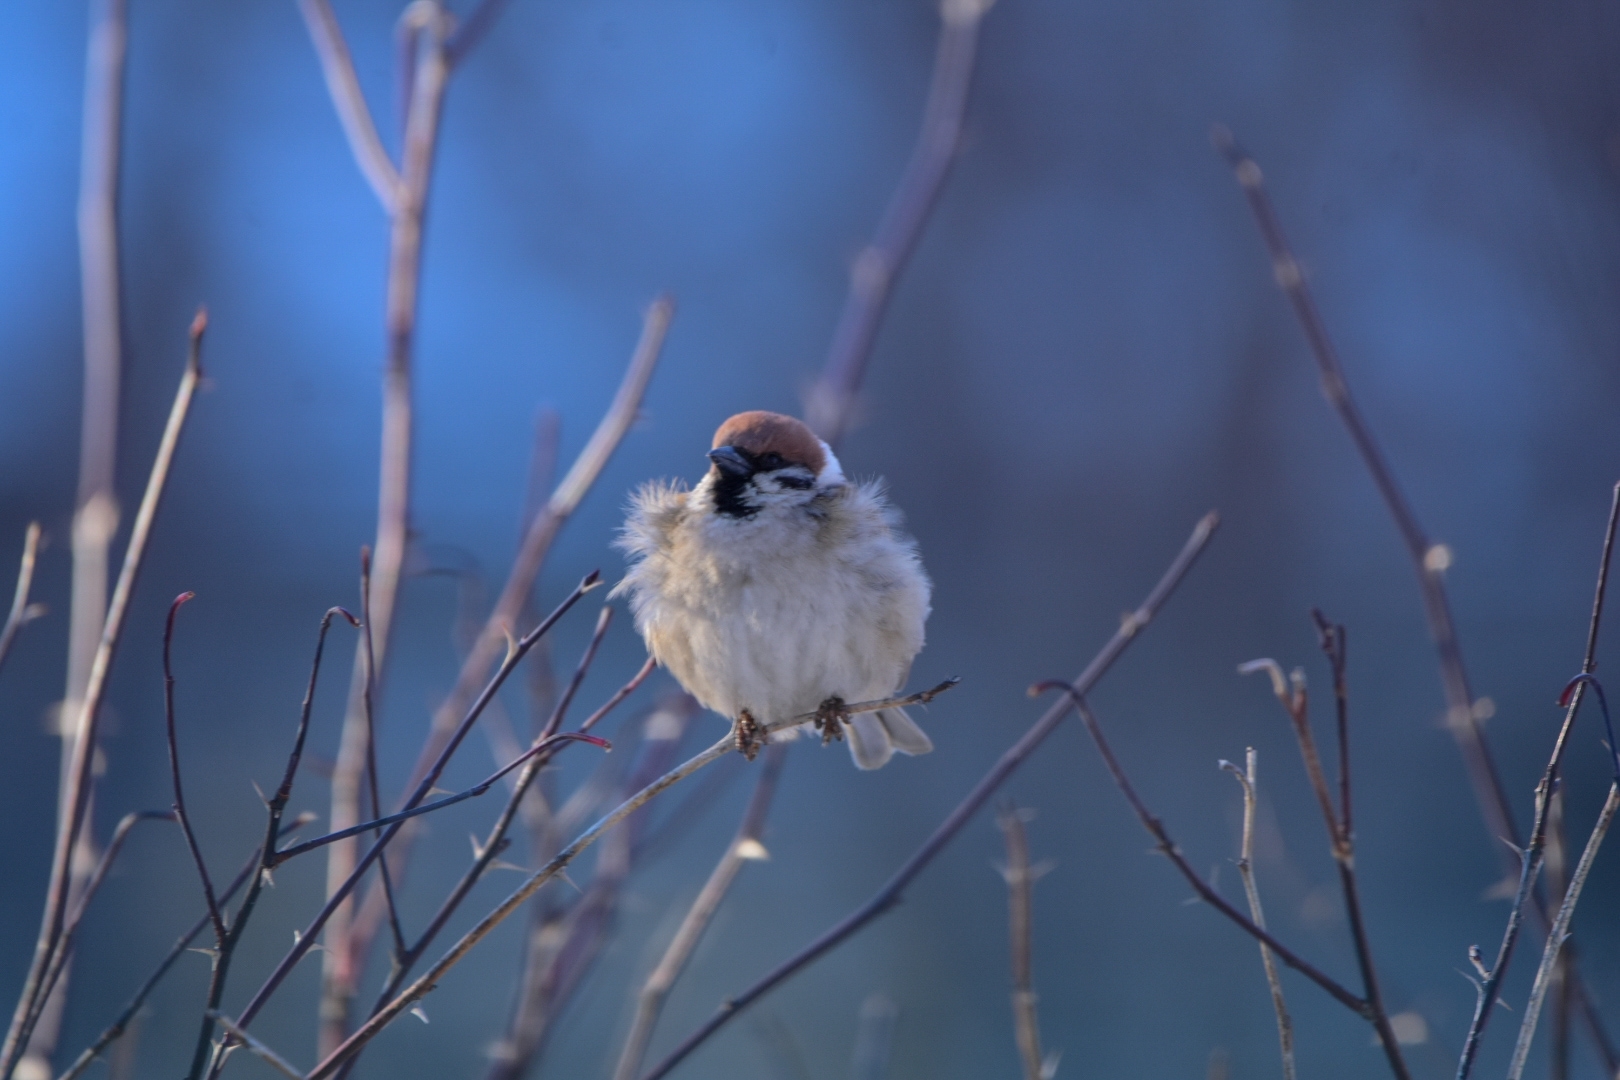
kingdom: Animalia
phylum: Chordata
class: Aves
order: Passeriformes
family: Passeridae
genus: Passer
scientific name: Passer montanus
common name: Eurasian tree sparrow
